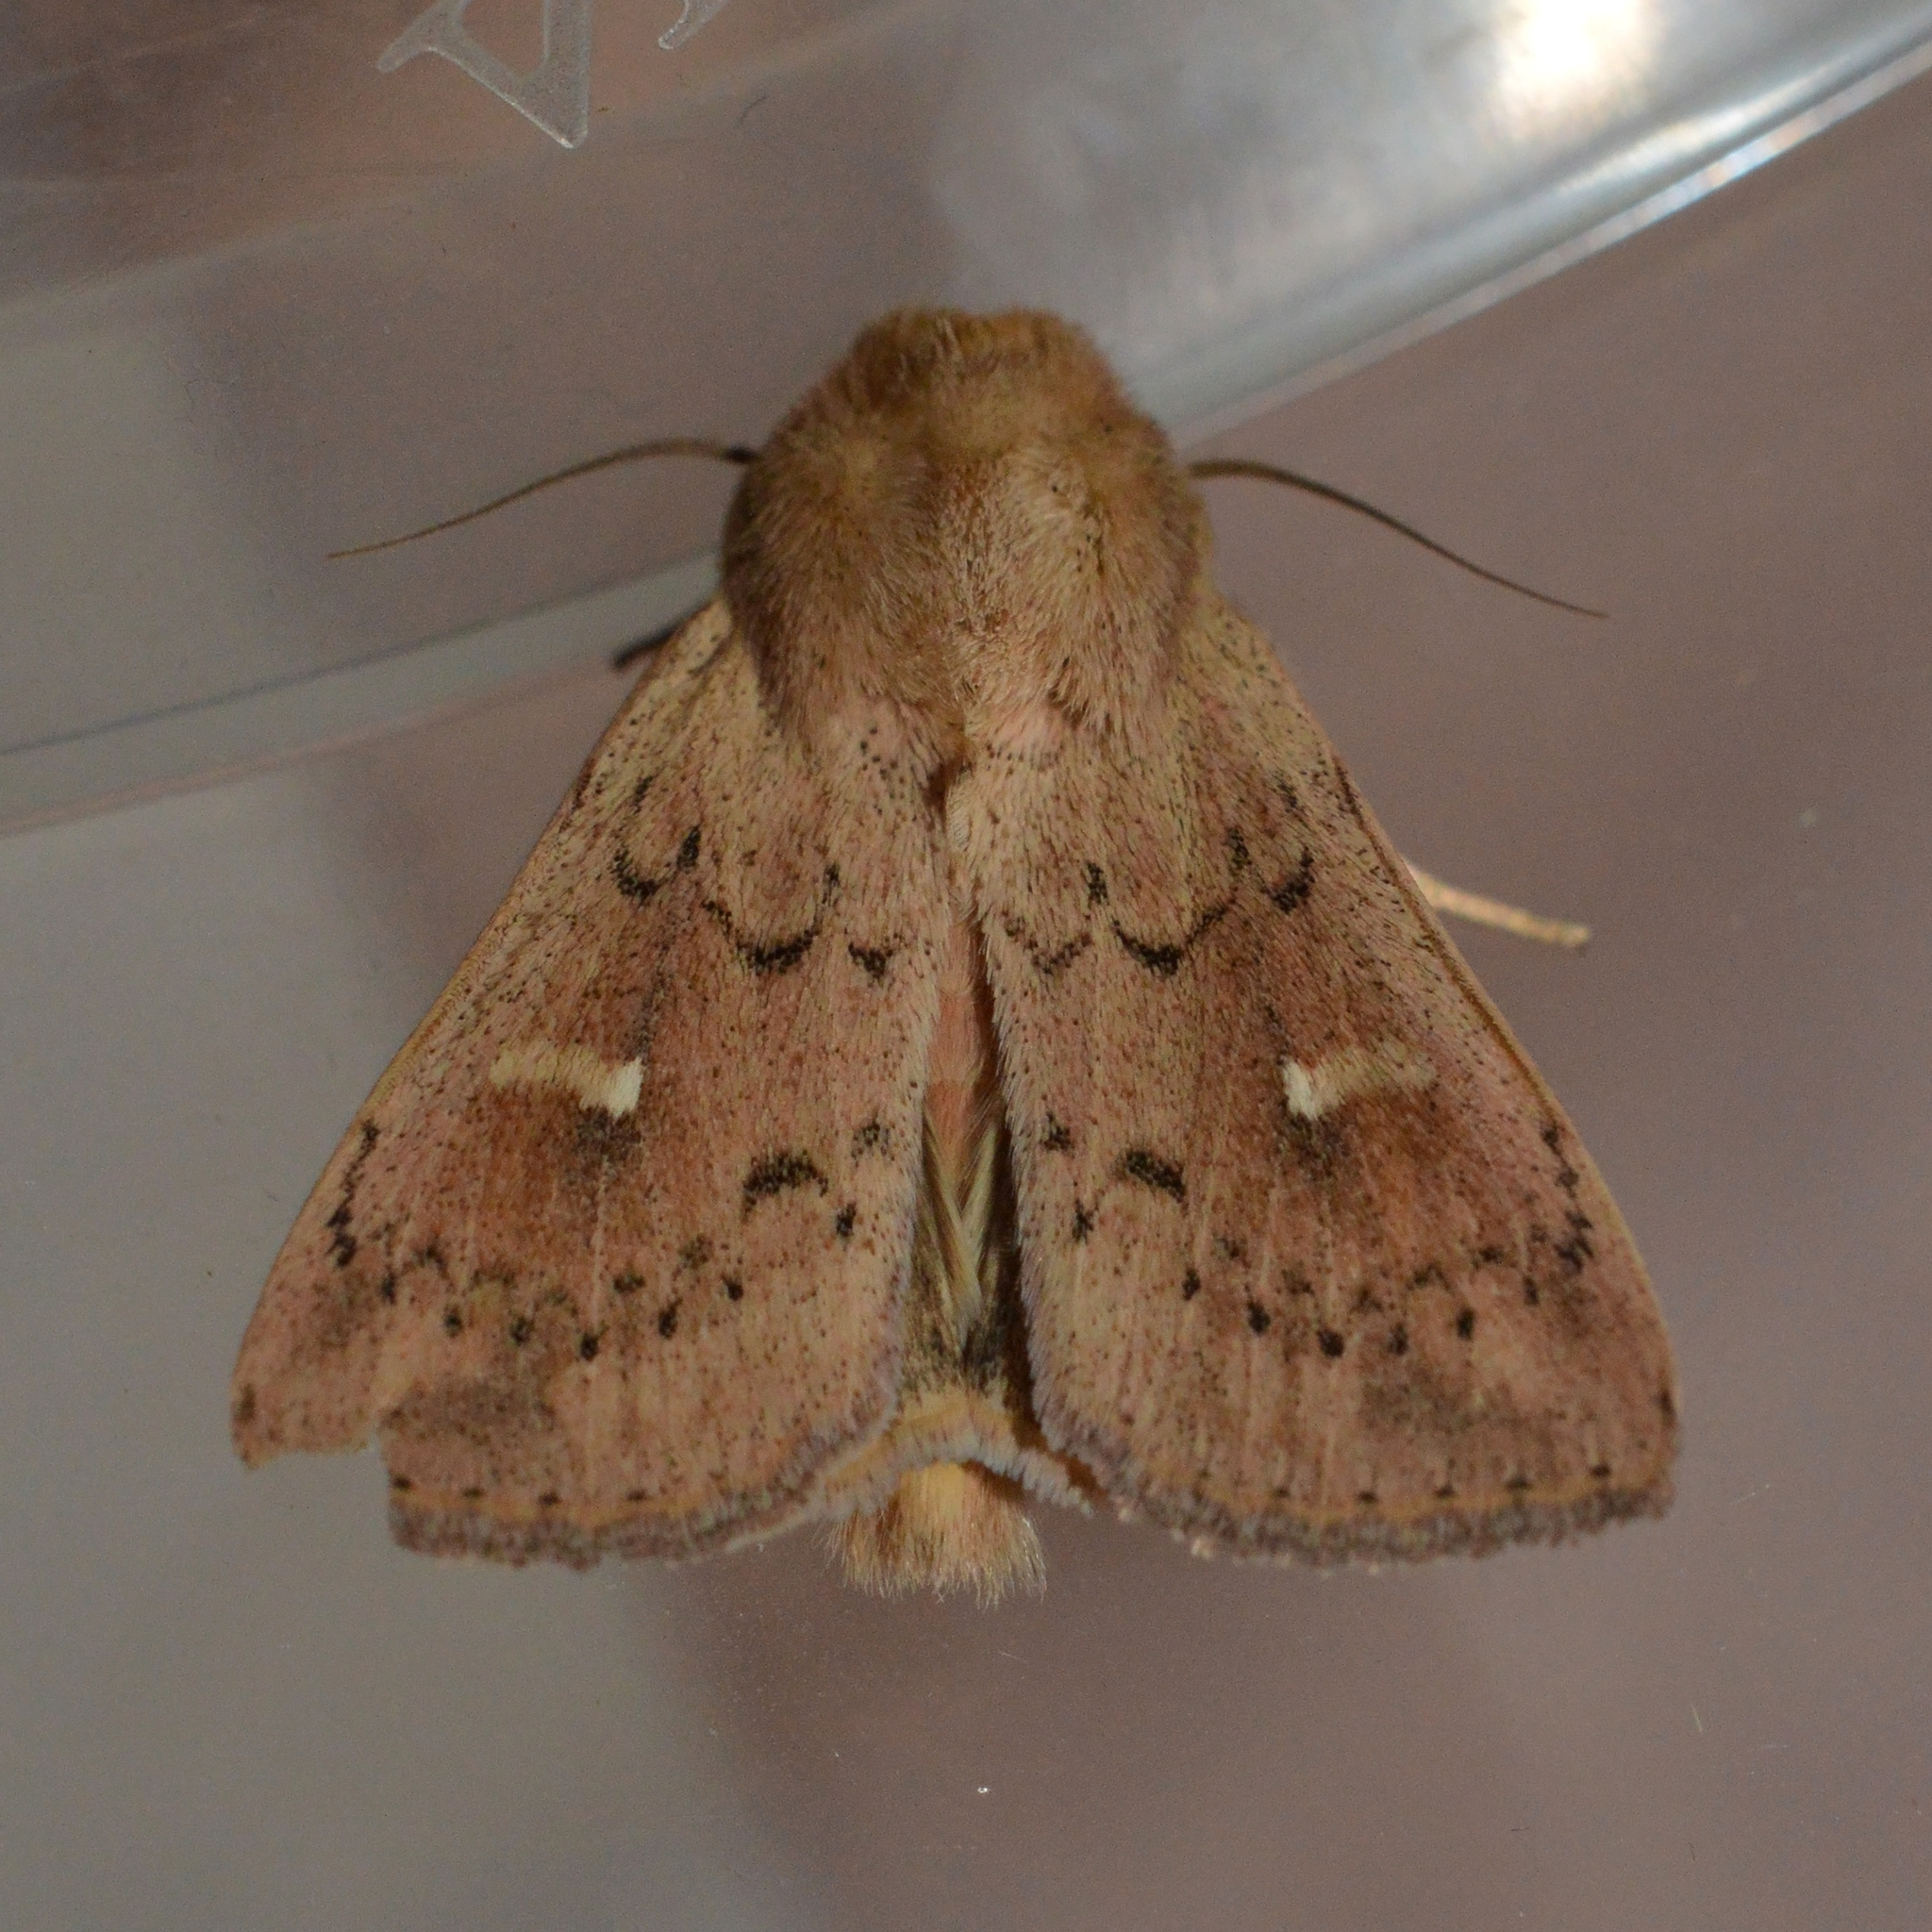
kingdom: Animalia
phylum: Arthropoda
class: Insecta
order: Lepidoptera
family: Noctuidae
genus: Mythimna
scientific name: Mythimna ferrago
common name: Clay
